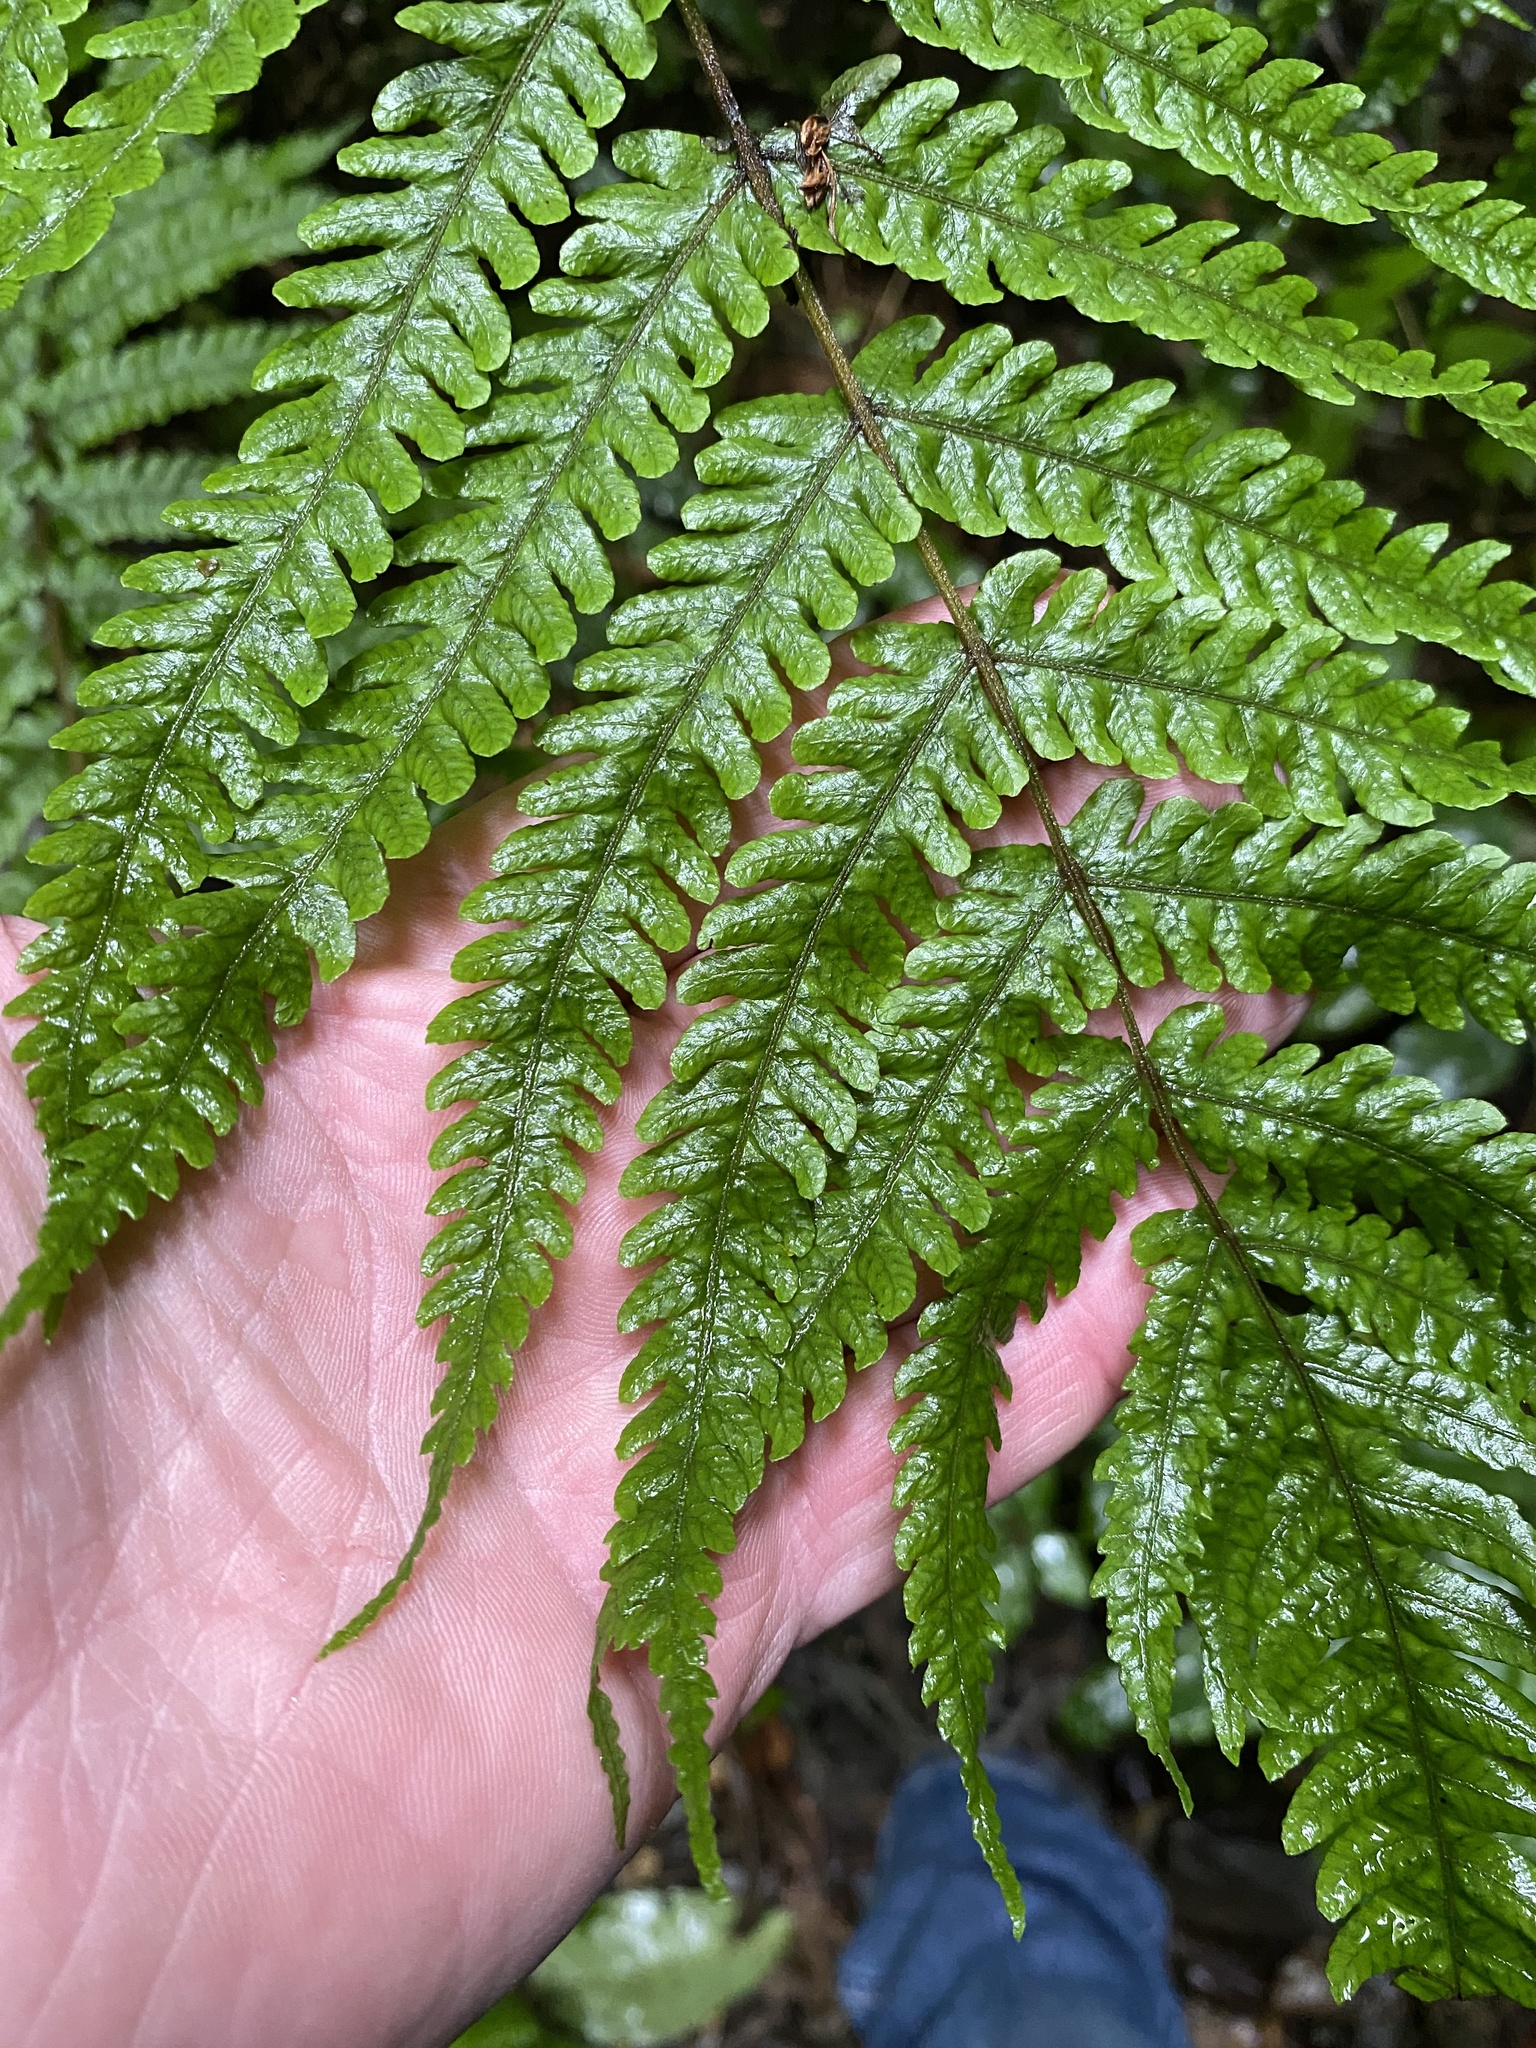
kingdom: Plantae
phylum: Tracheophyta
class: Polypodiopsida
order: Polypodiales
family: Thelypteridaceae
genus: Pakau
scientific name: Pakau pennigera
